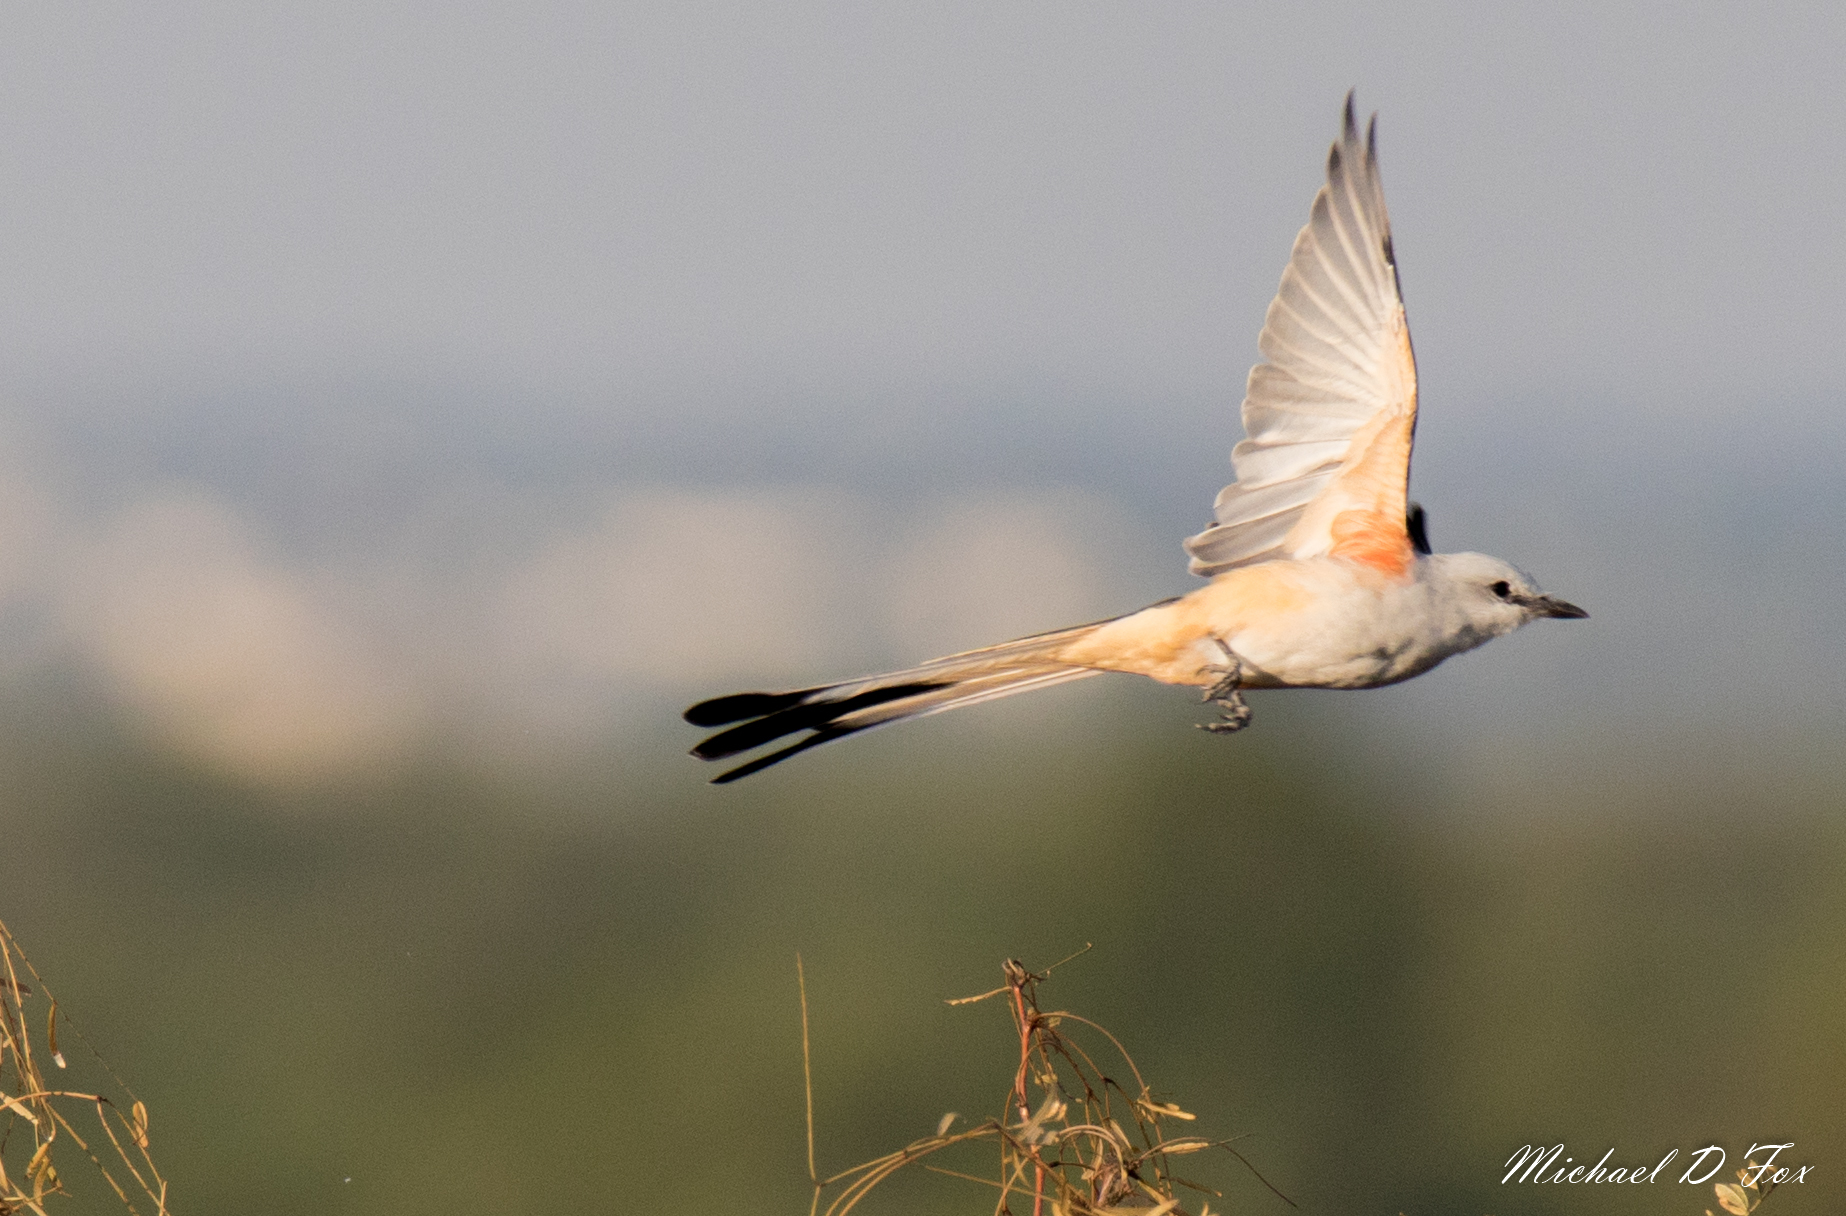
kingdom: Animalia
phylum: Chordata
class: Aves
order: Passeriformes
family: Tyrannidae
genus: Tyrannus
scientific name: Tyrannus forficatus
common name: Scissor-tailed flycatcher
